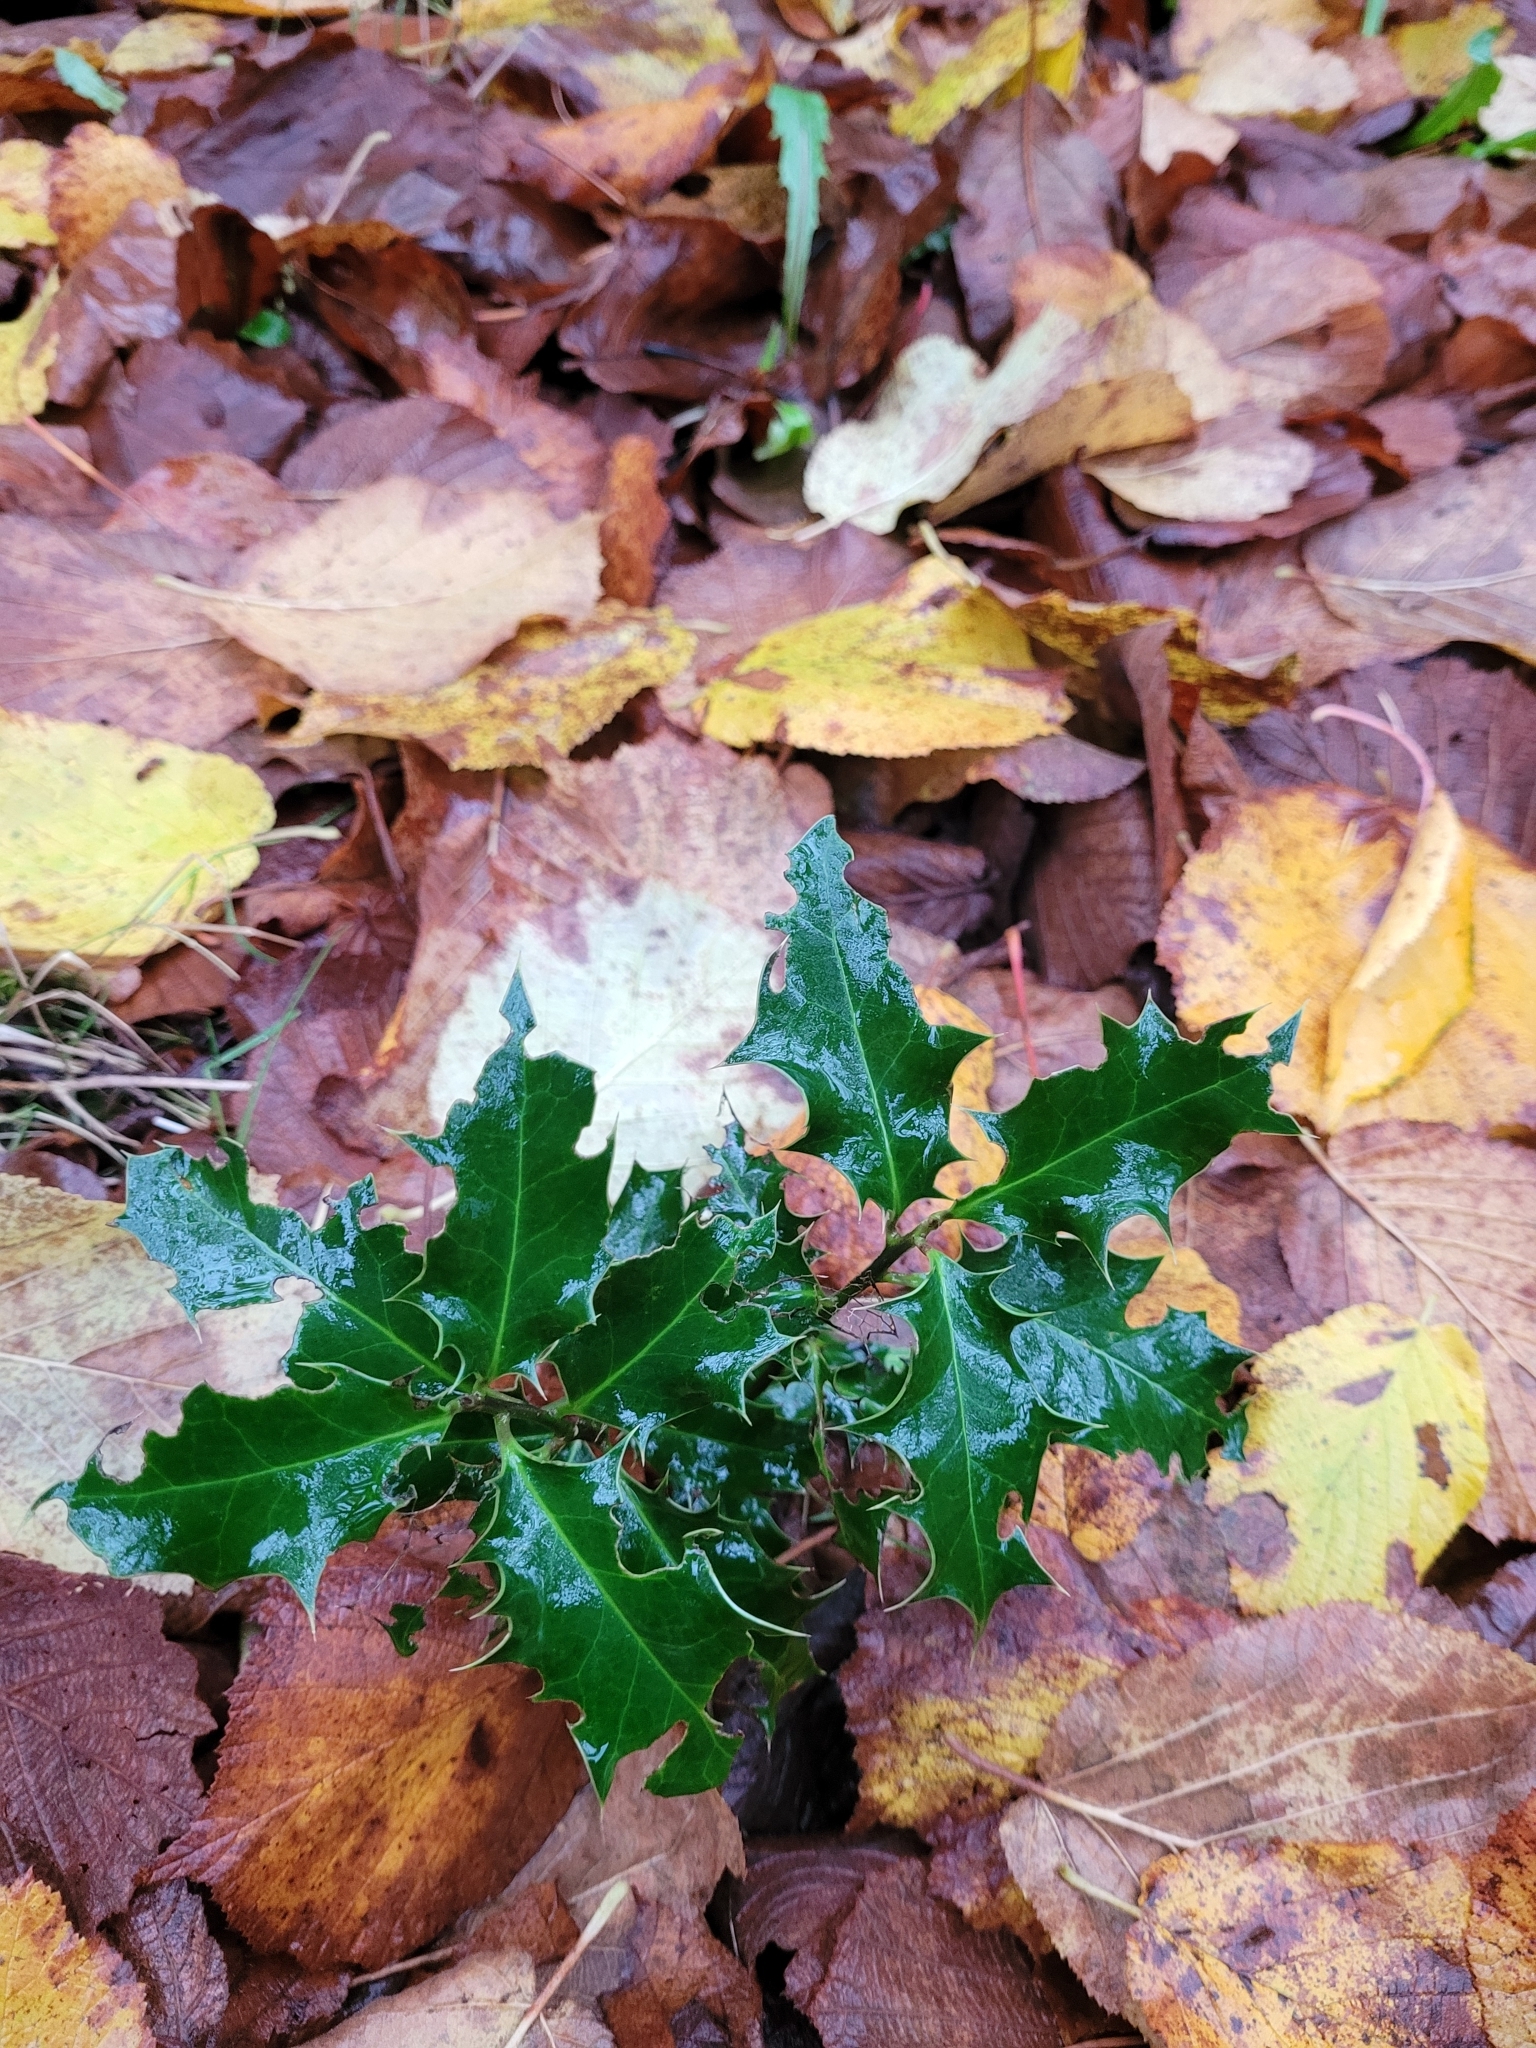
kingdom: Plantae
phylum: Tracheophyta
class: Magnoliopsida
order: Aquifoliales
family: Aquifoliaceae
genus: Ilex
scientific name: Ilex aquifolium
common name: English holly
